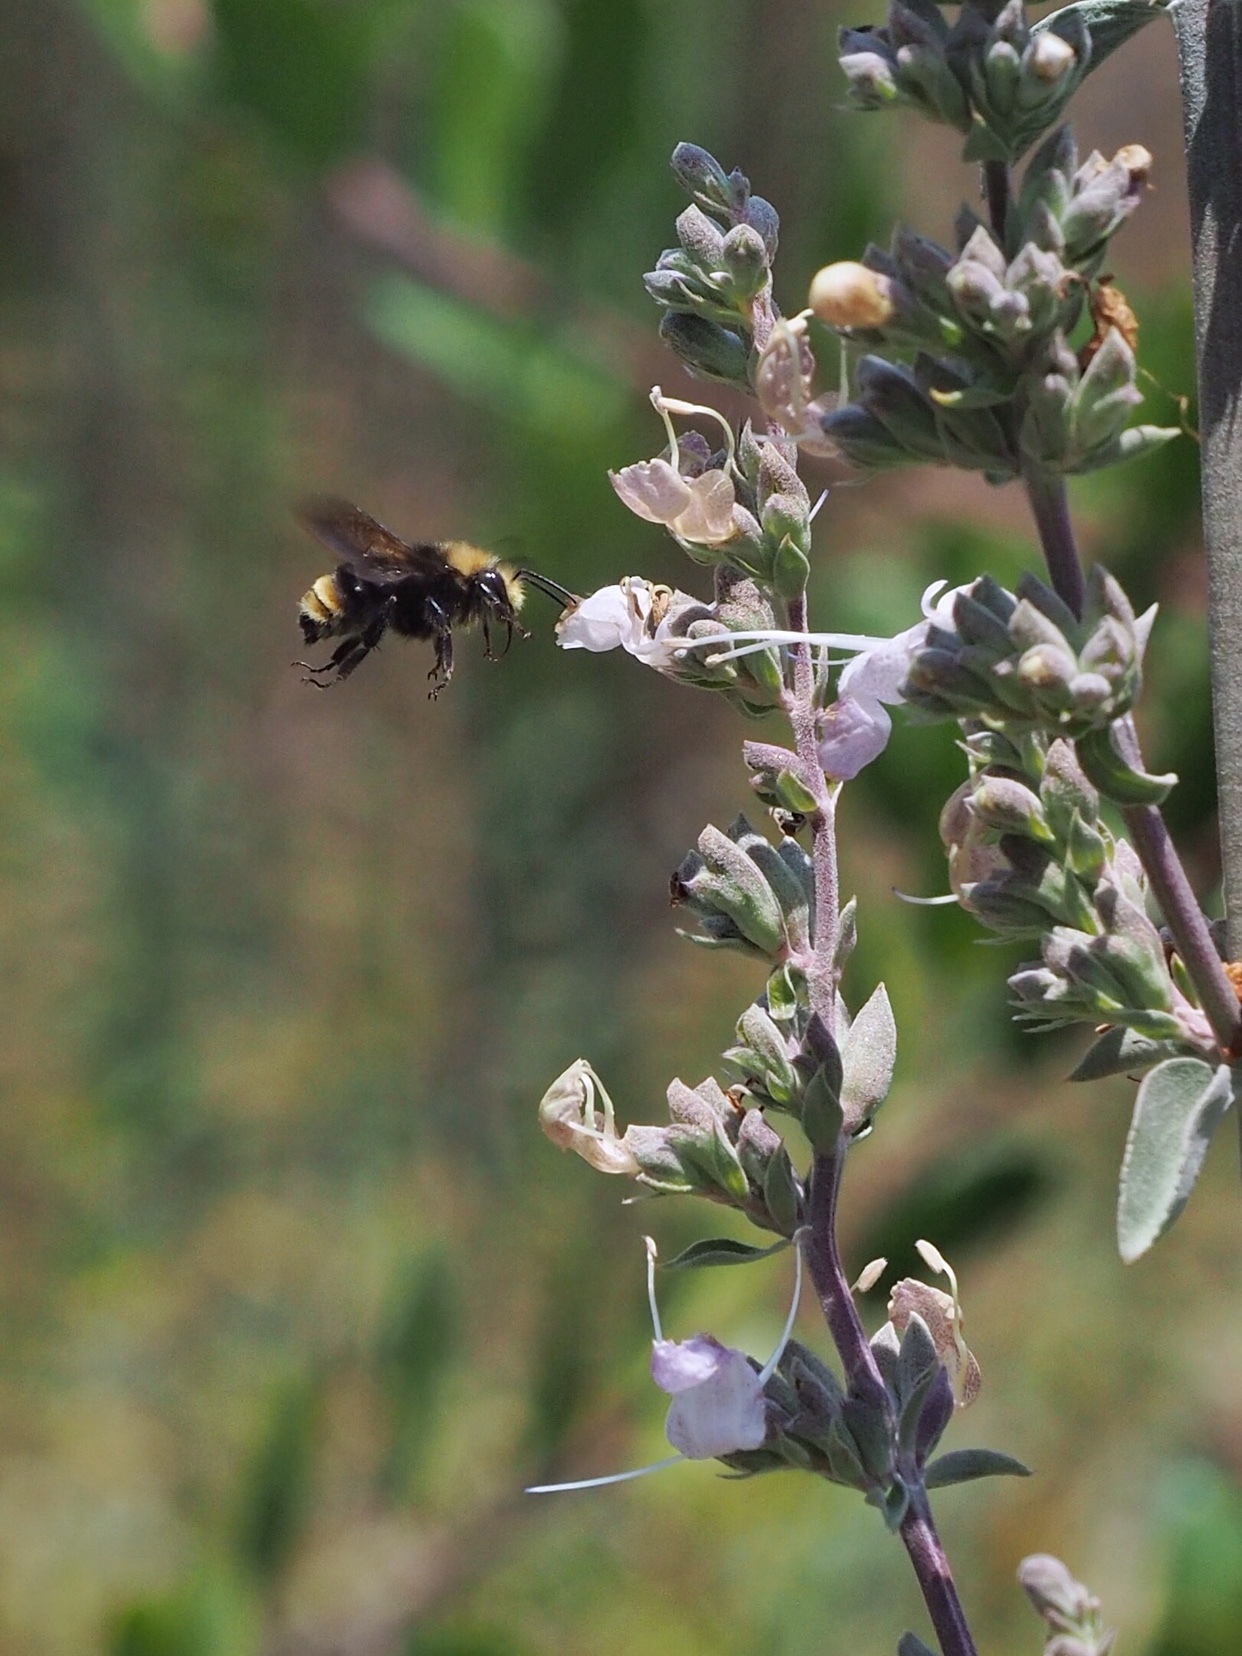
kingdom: Animalia
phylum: Arthropoda
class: Insecta
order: Hymenoptera
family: Apidae
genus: Bombus
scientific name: Bombus vosnesenskii
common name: Vosnesensky bumble bee
